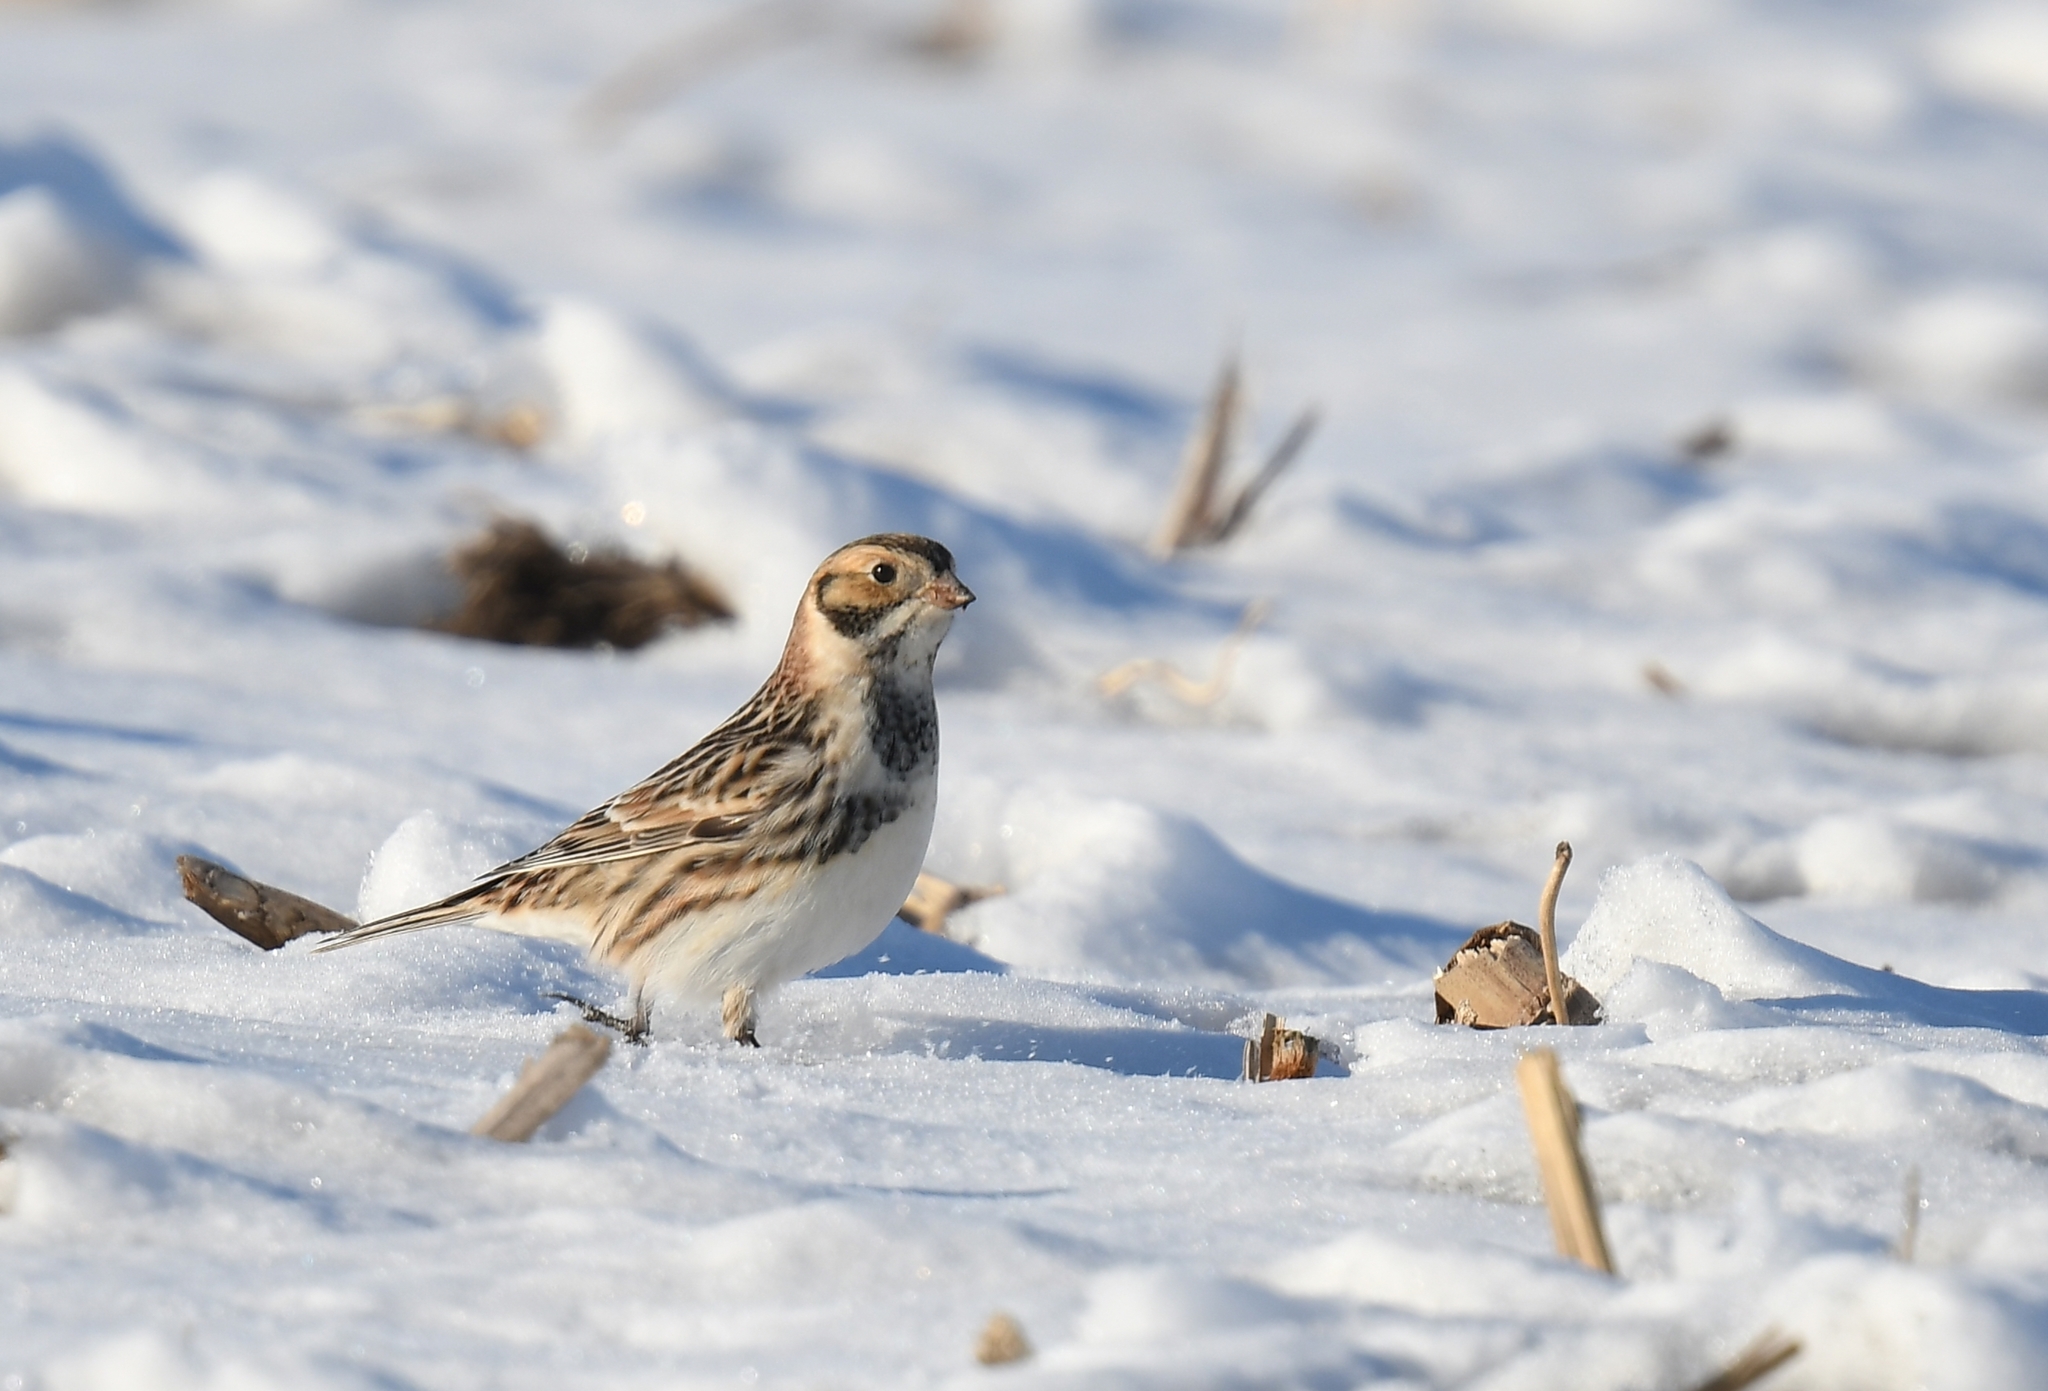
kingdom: Animalia
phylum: Chordata
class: Aves
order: Passeriformes
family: Calcariidae
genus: Calcarius
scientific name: Calcarius lapponicus
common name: Lapland longspur
